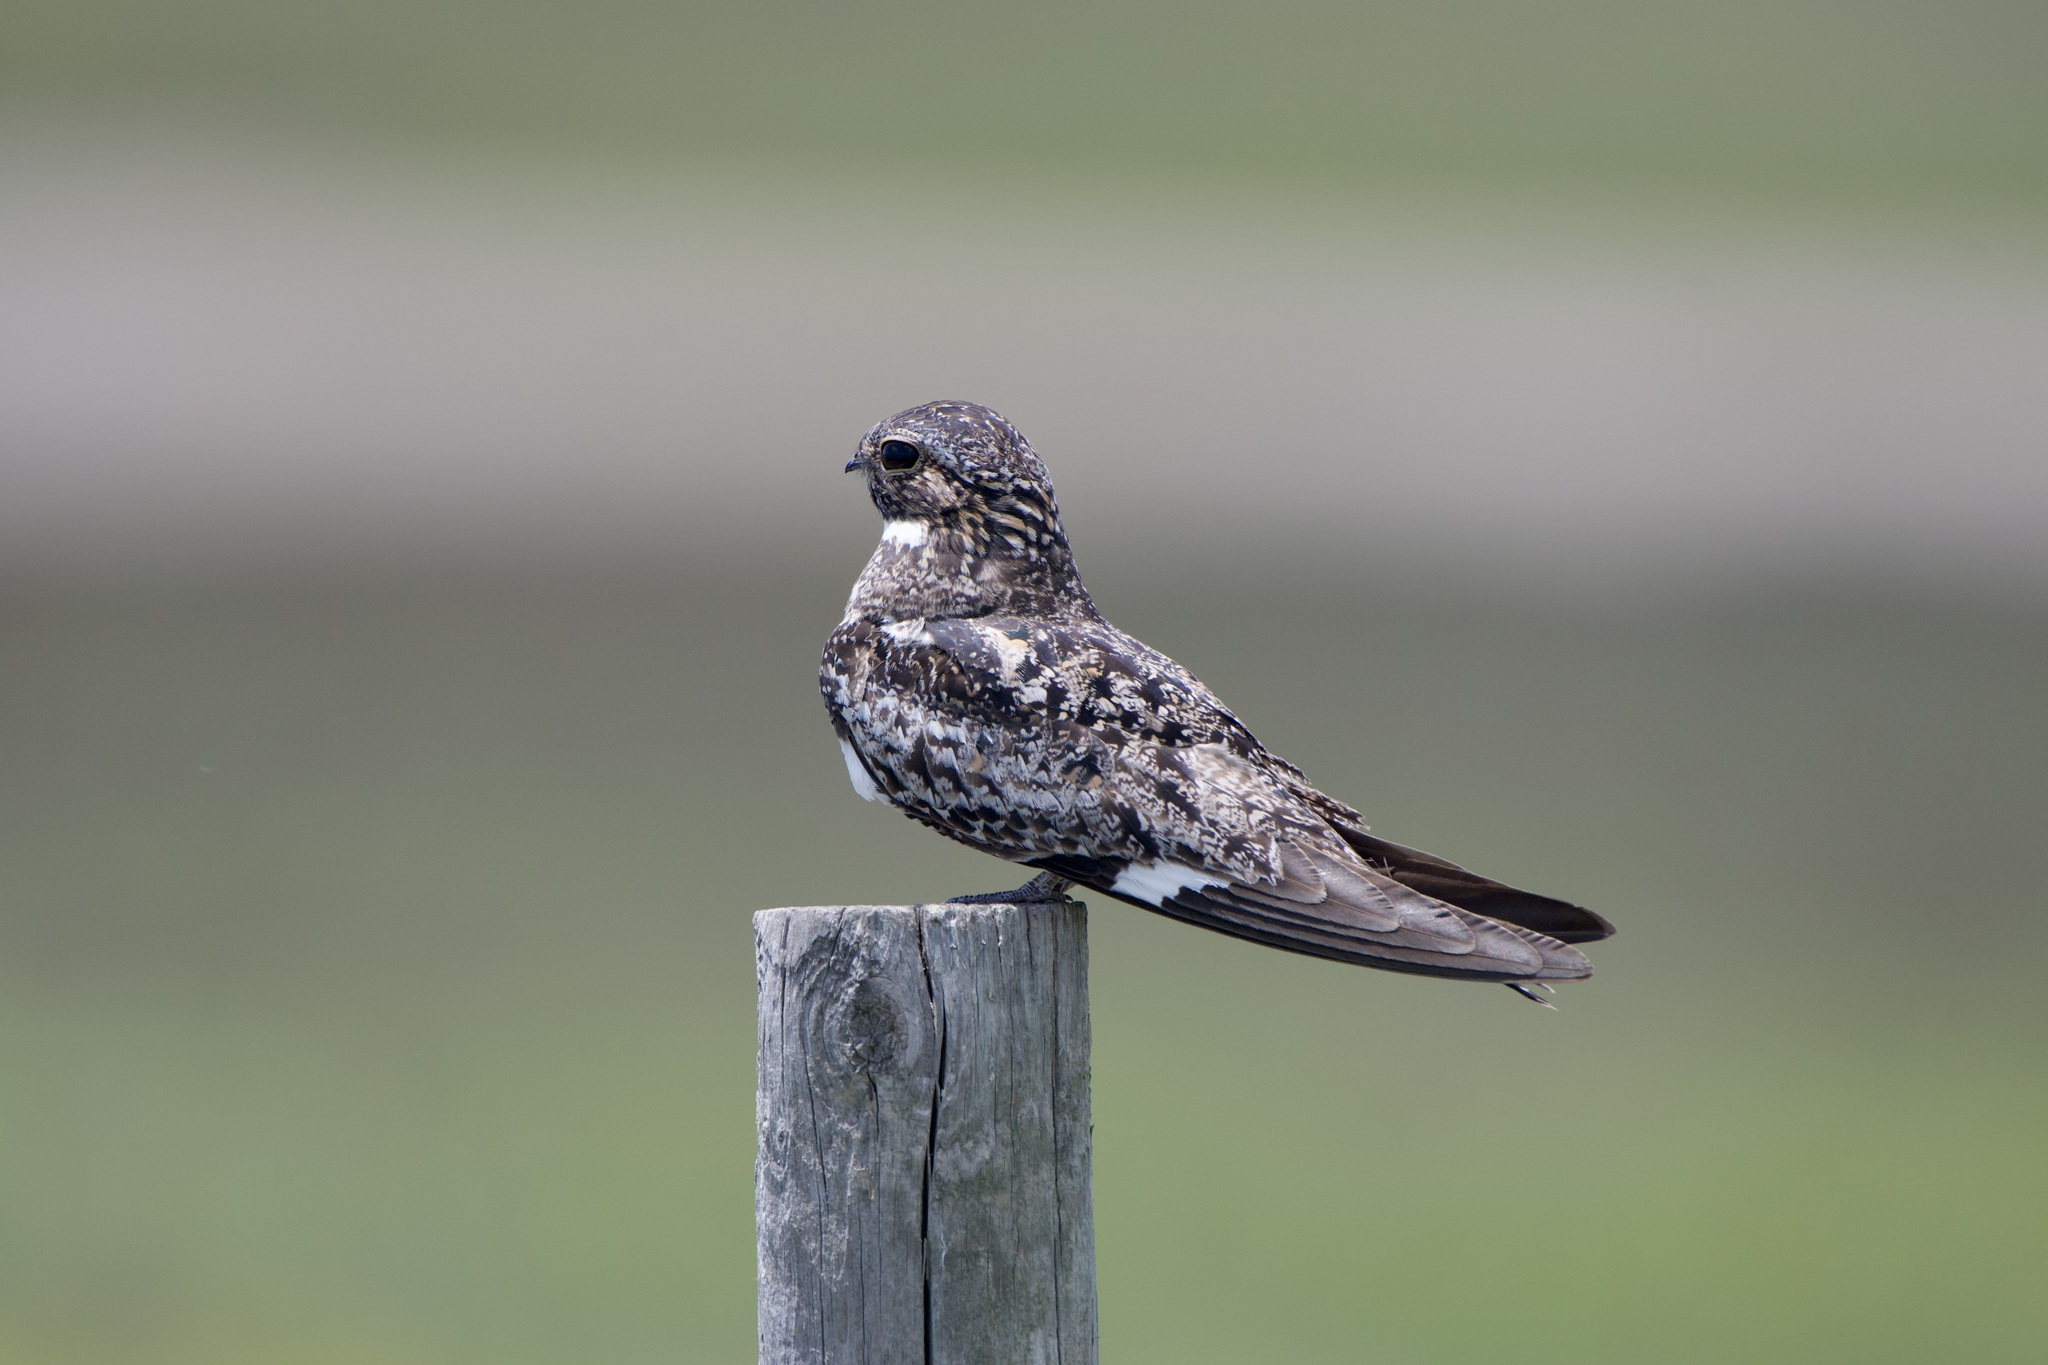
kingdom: Animalia
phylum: Chordata
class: Aves
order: Caprimulgiformes
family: Caprimulgidae
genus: Chordeiles
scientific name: Chordeiles minor
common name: Common nighthawk
